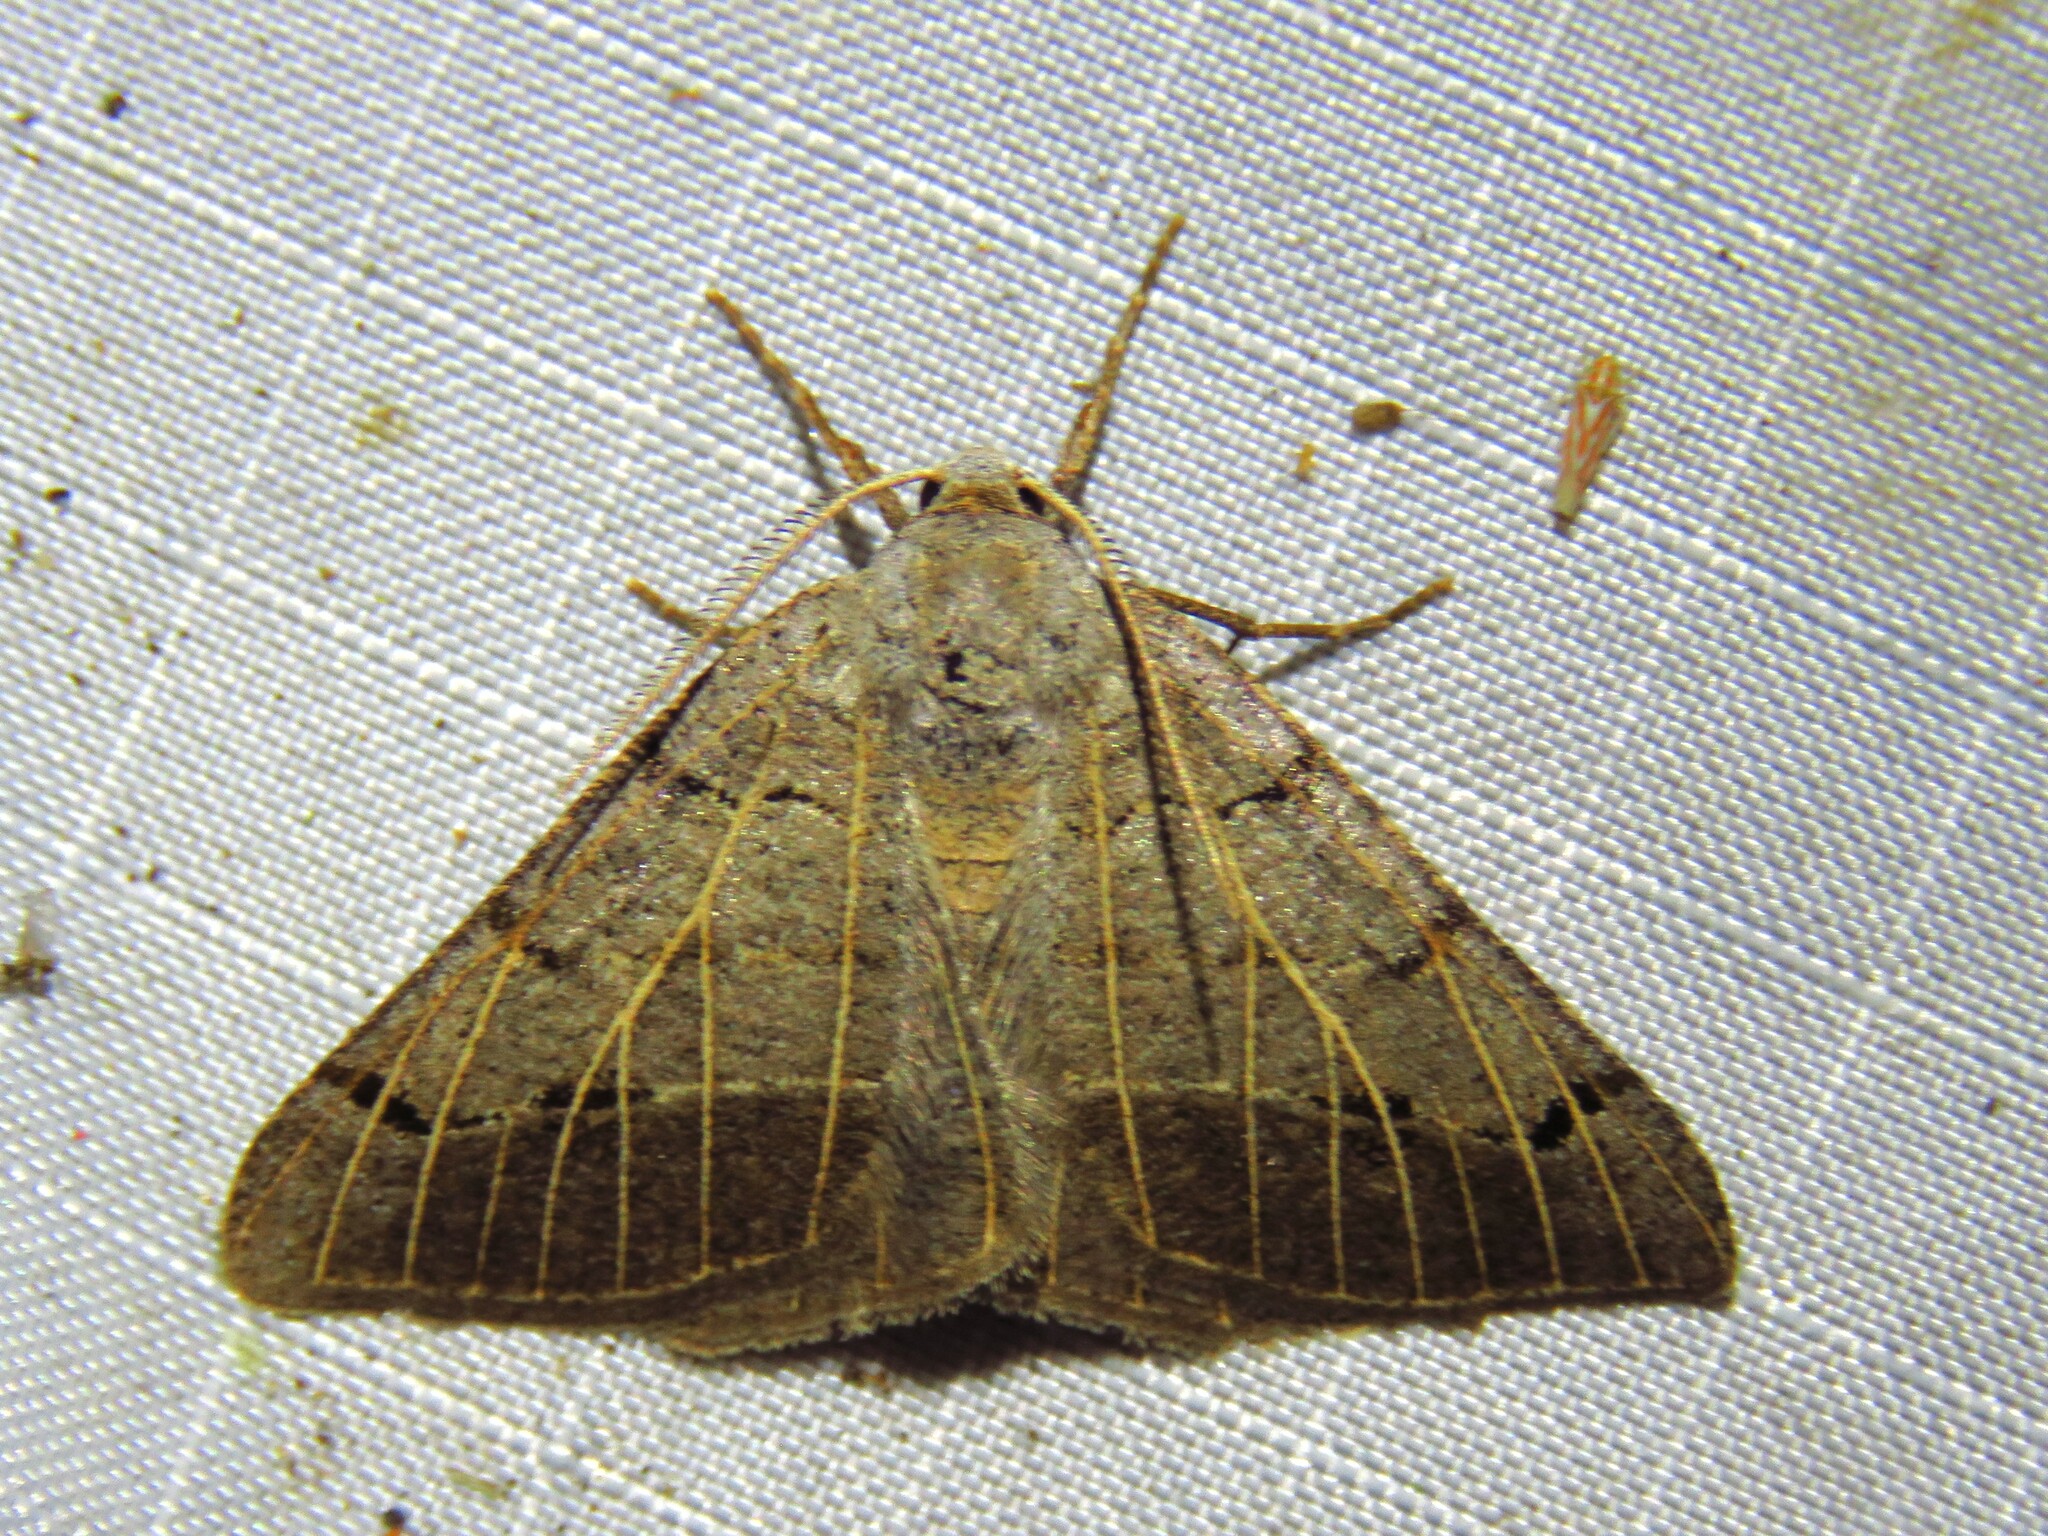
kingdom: Animalia
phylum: Arthropoda
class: Insecta
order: Lepidoptera
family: Geometridae
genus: Isturgia
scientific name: Isturgia dislocaria
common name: Pale-viened enconista
